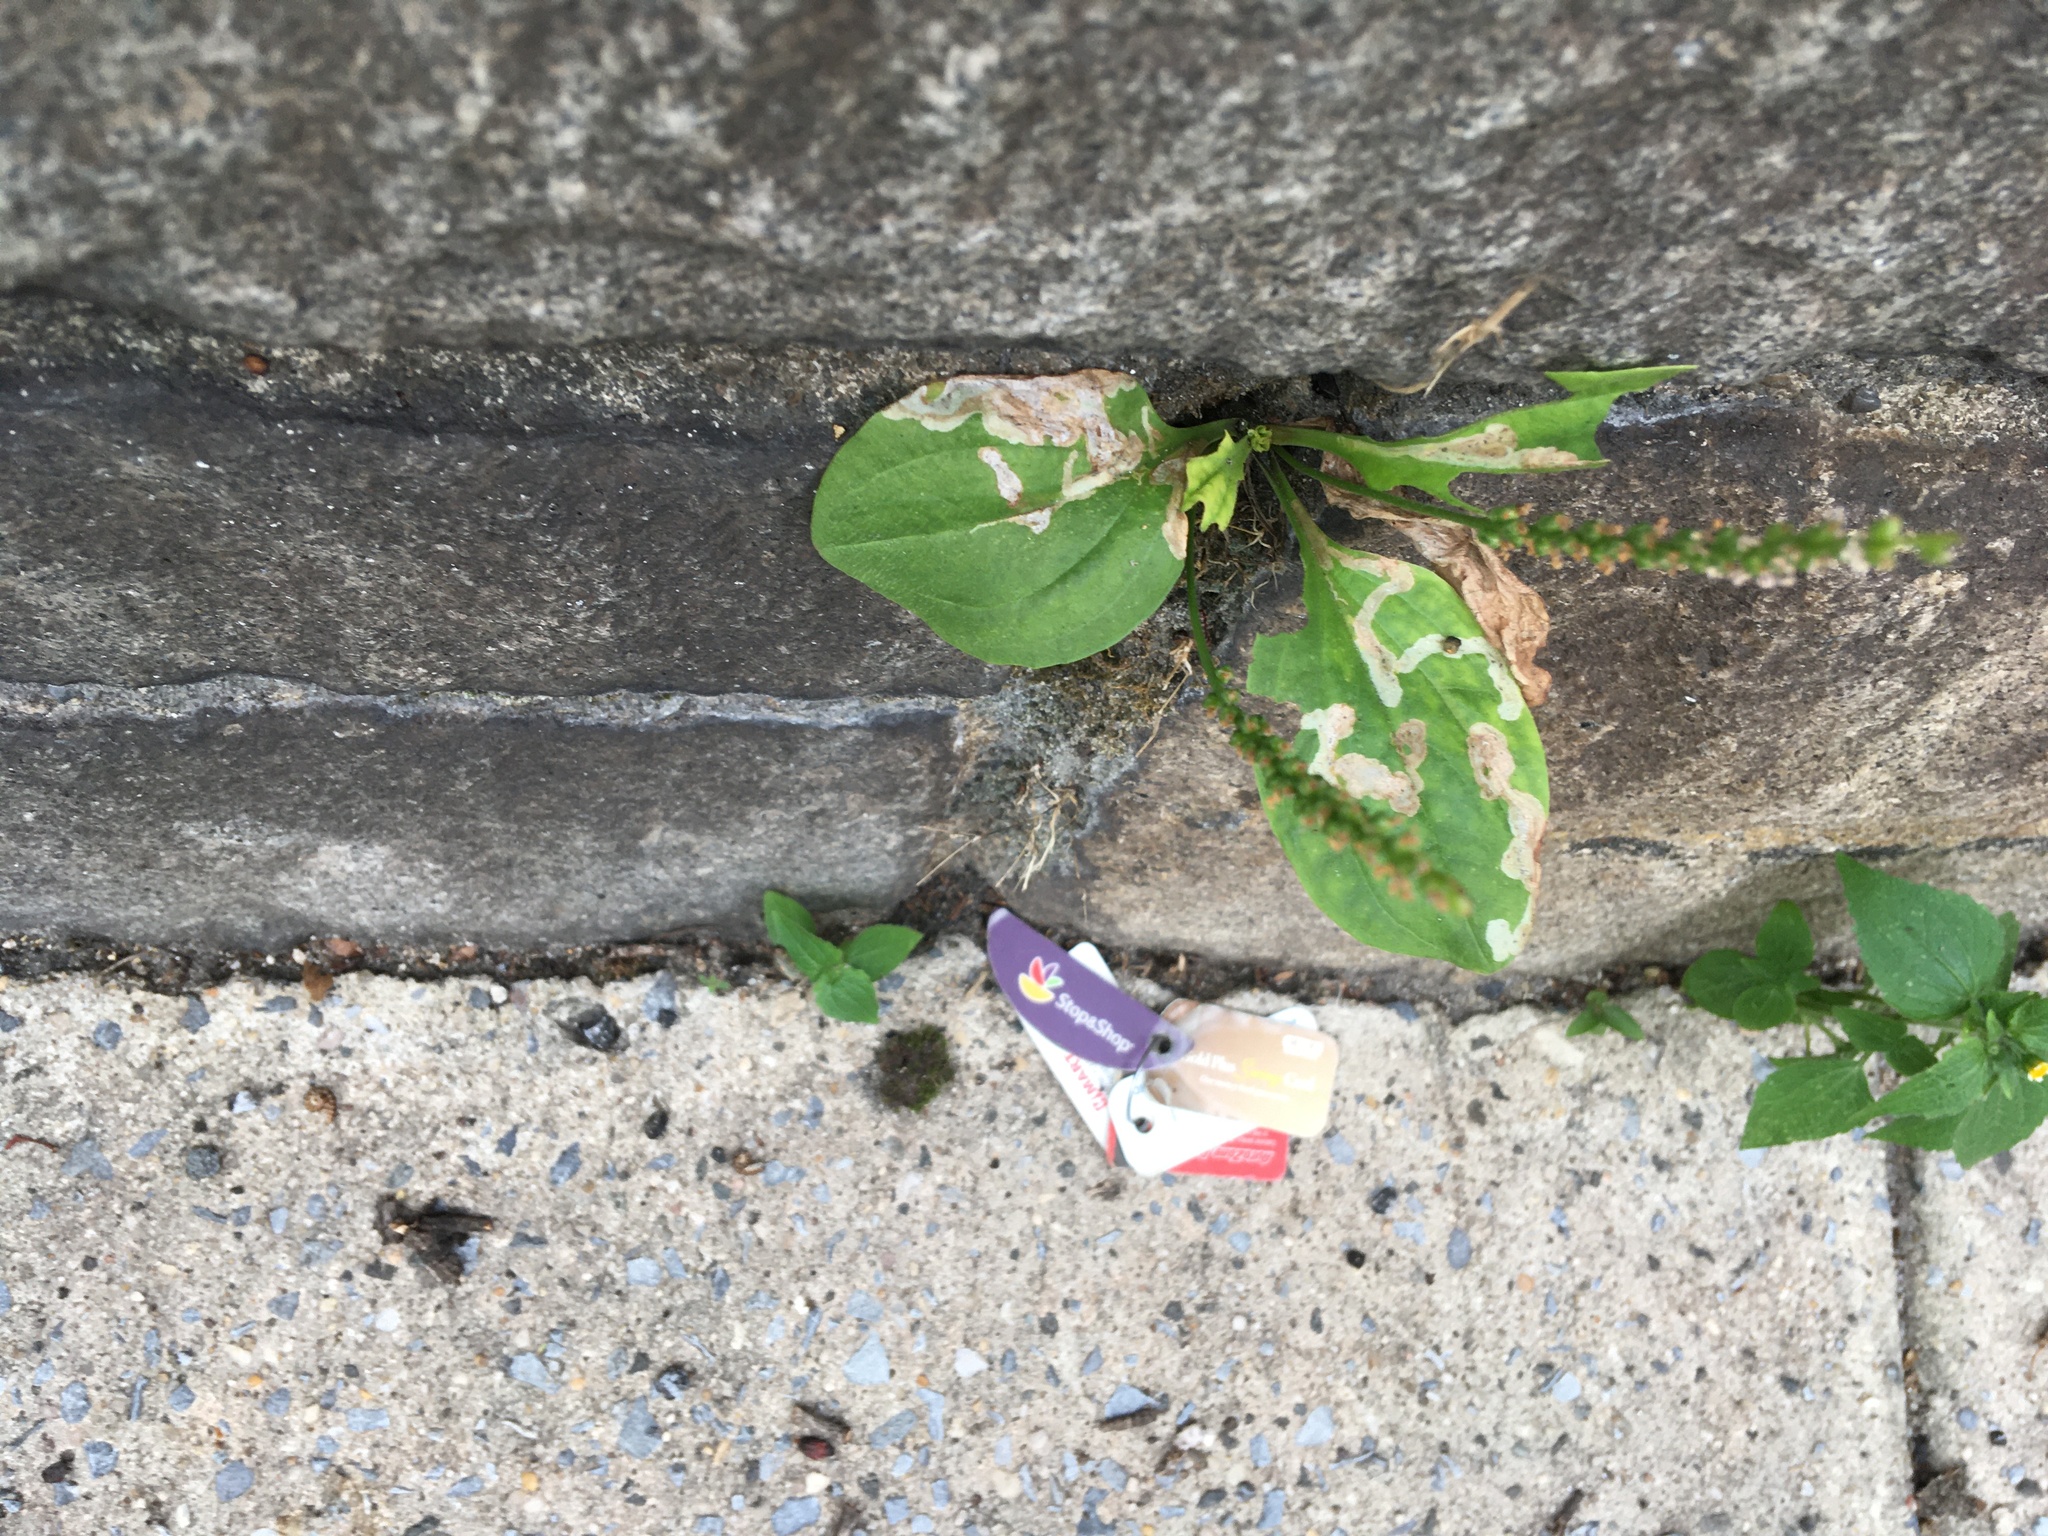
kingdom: Plantae
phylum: Tracheophyta
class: Magnoliopsida
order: Lamiales
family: Plantaginaceae
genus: Plantago
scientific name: Plantago major
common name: Common plantain
